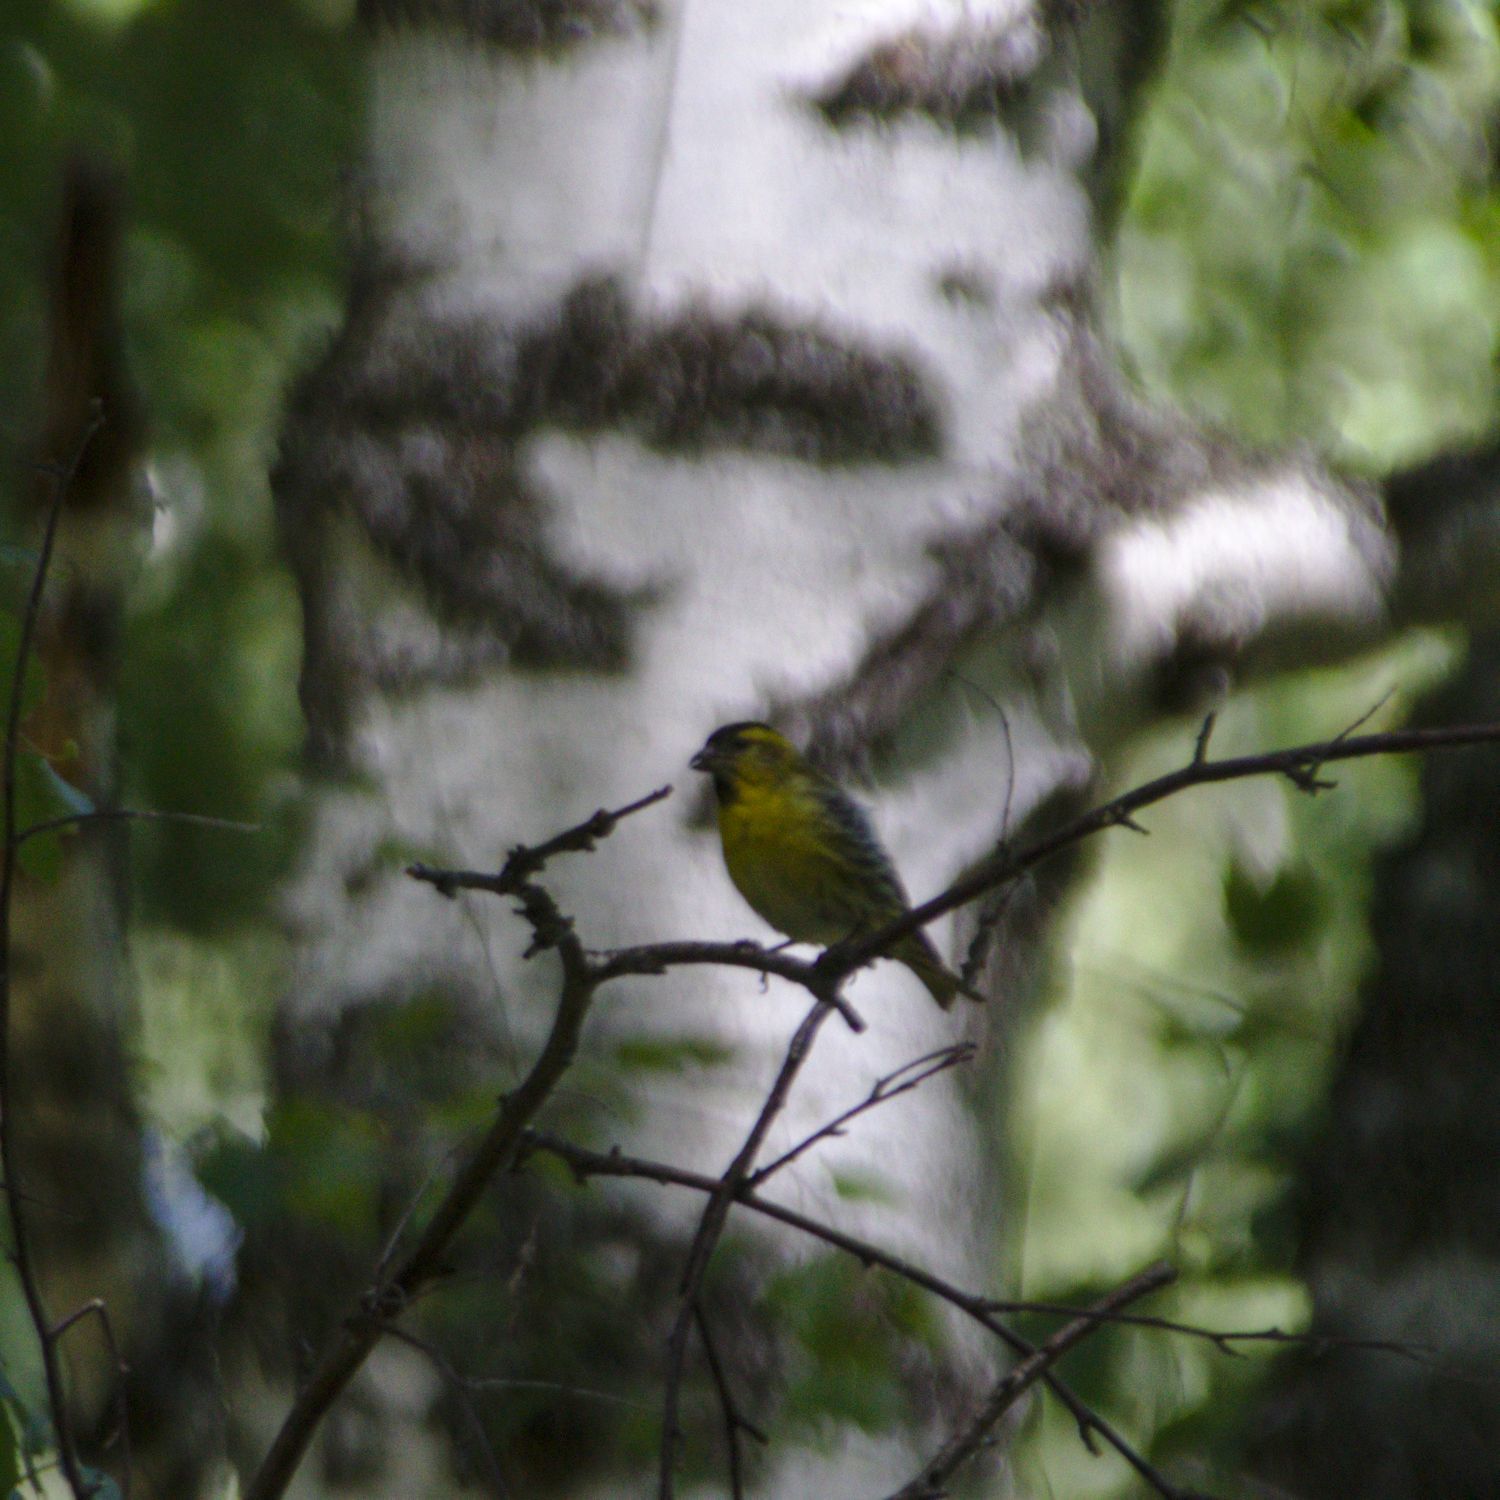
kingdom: Animalia
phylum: Chordata
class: Aves
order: Passeriformes
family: Fringillidae
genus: Spinus
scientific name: Spinus spinus
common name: Eurasian siskin
